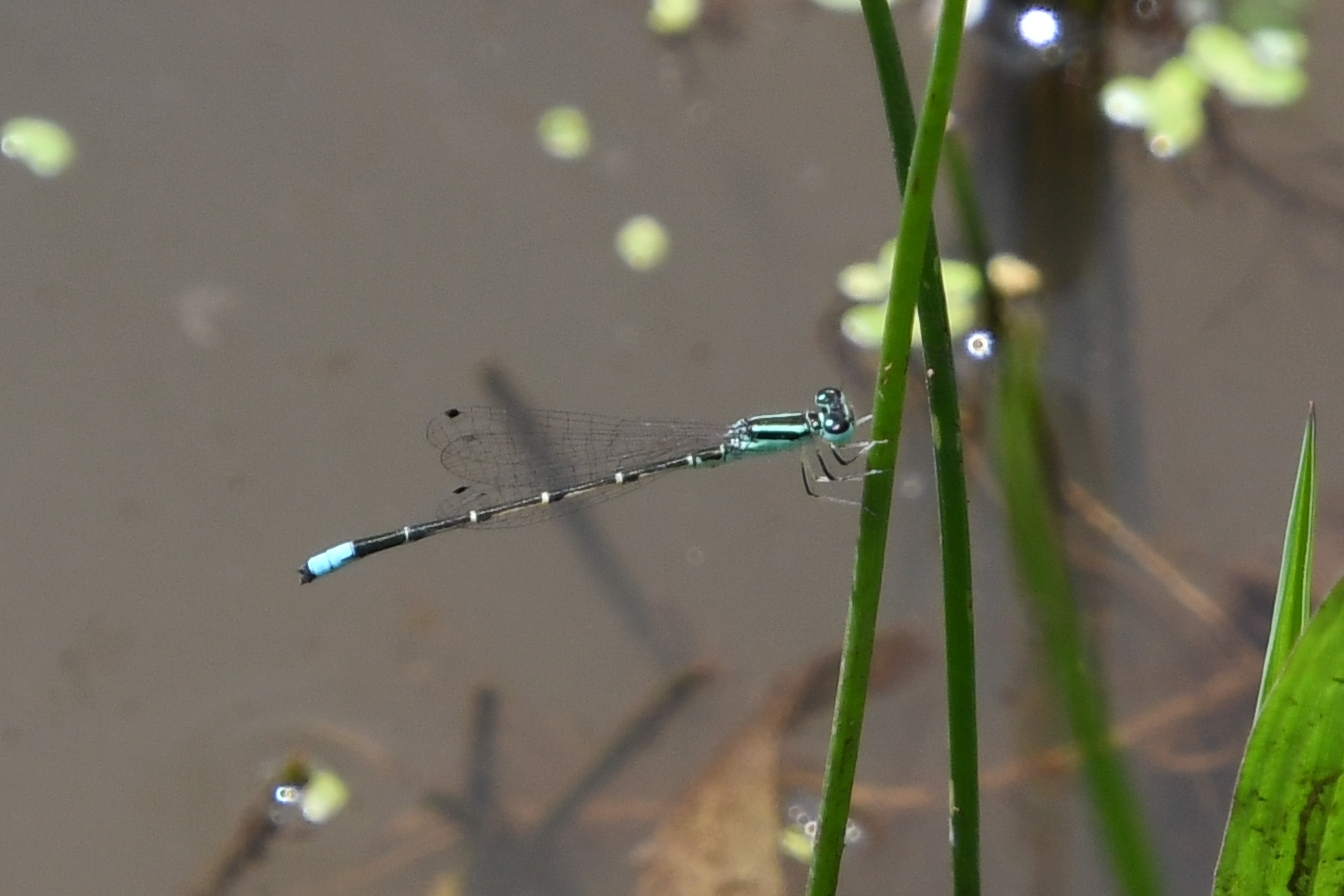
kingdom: Animalia
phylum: Arthropoda
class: Insecta
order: Odonata
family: Coenagrionidae
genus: Ischnura
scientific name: Ischnura demorsa
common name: Mexican forktail
